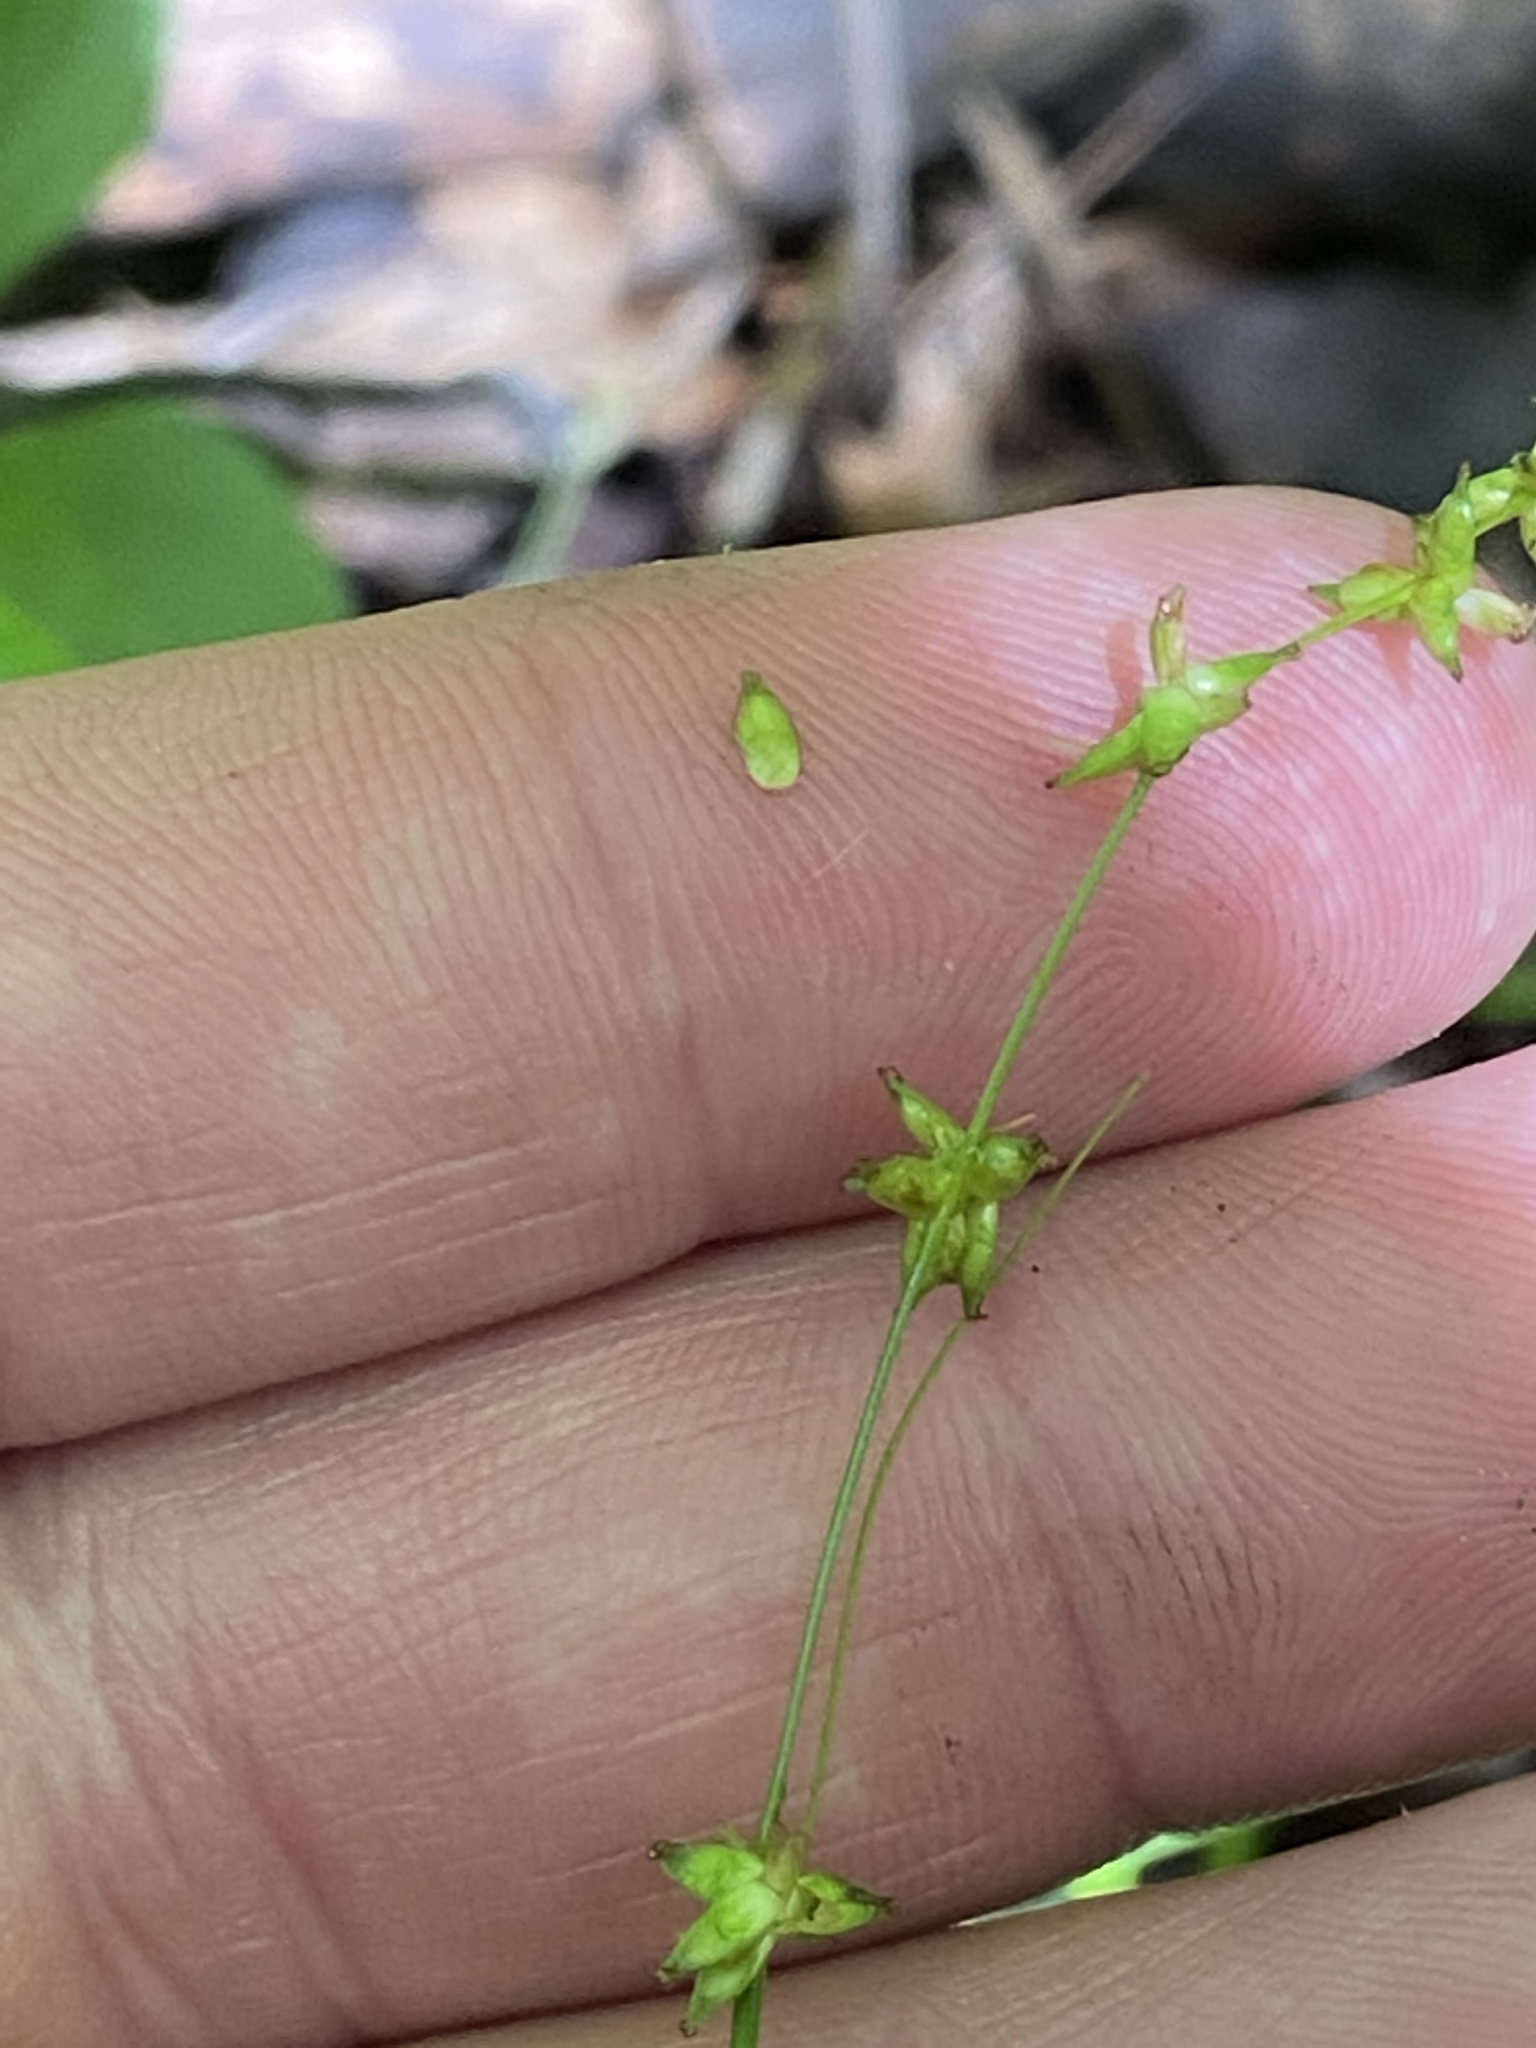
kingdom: Plantae
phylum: Tracheophyta
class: Liliopsida
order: Poales
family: Cyperaceae
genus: Carex
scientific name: Carex radiata
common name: Eastern star sedge
